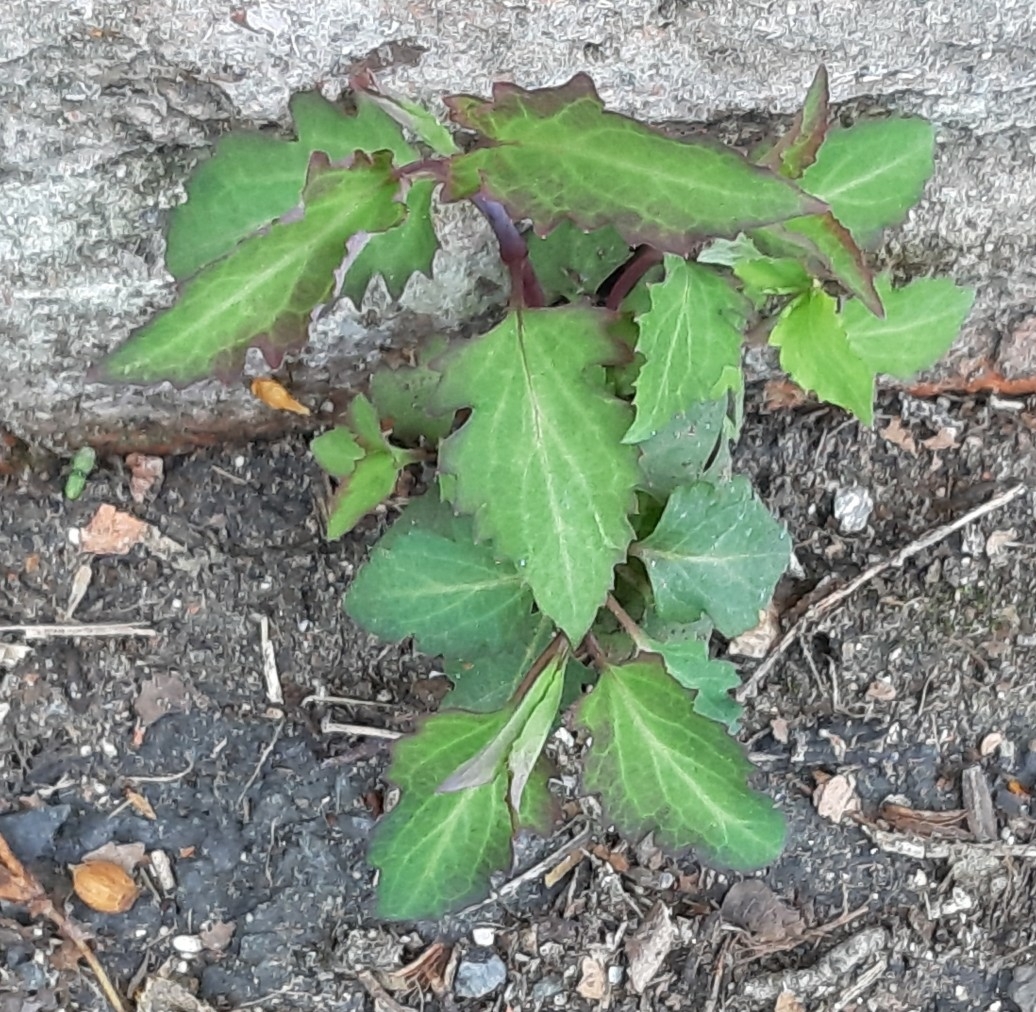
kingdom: Plantae
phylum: Tracheophyta
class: Magnoliopsida
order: Dipsacales
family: Caprifoliaceae
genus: Leycesteria
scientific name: Leycesteria formosa
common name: Himalayan honeysuckle
